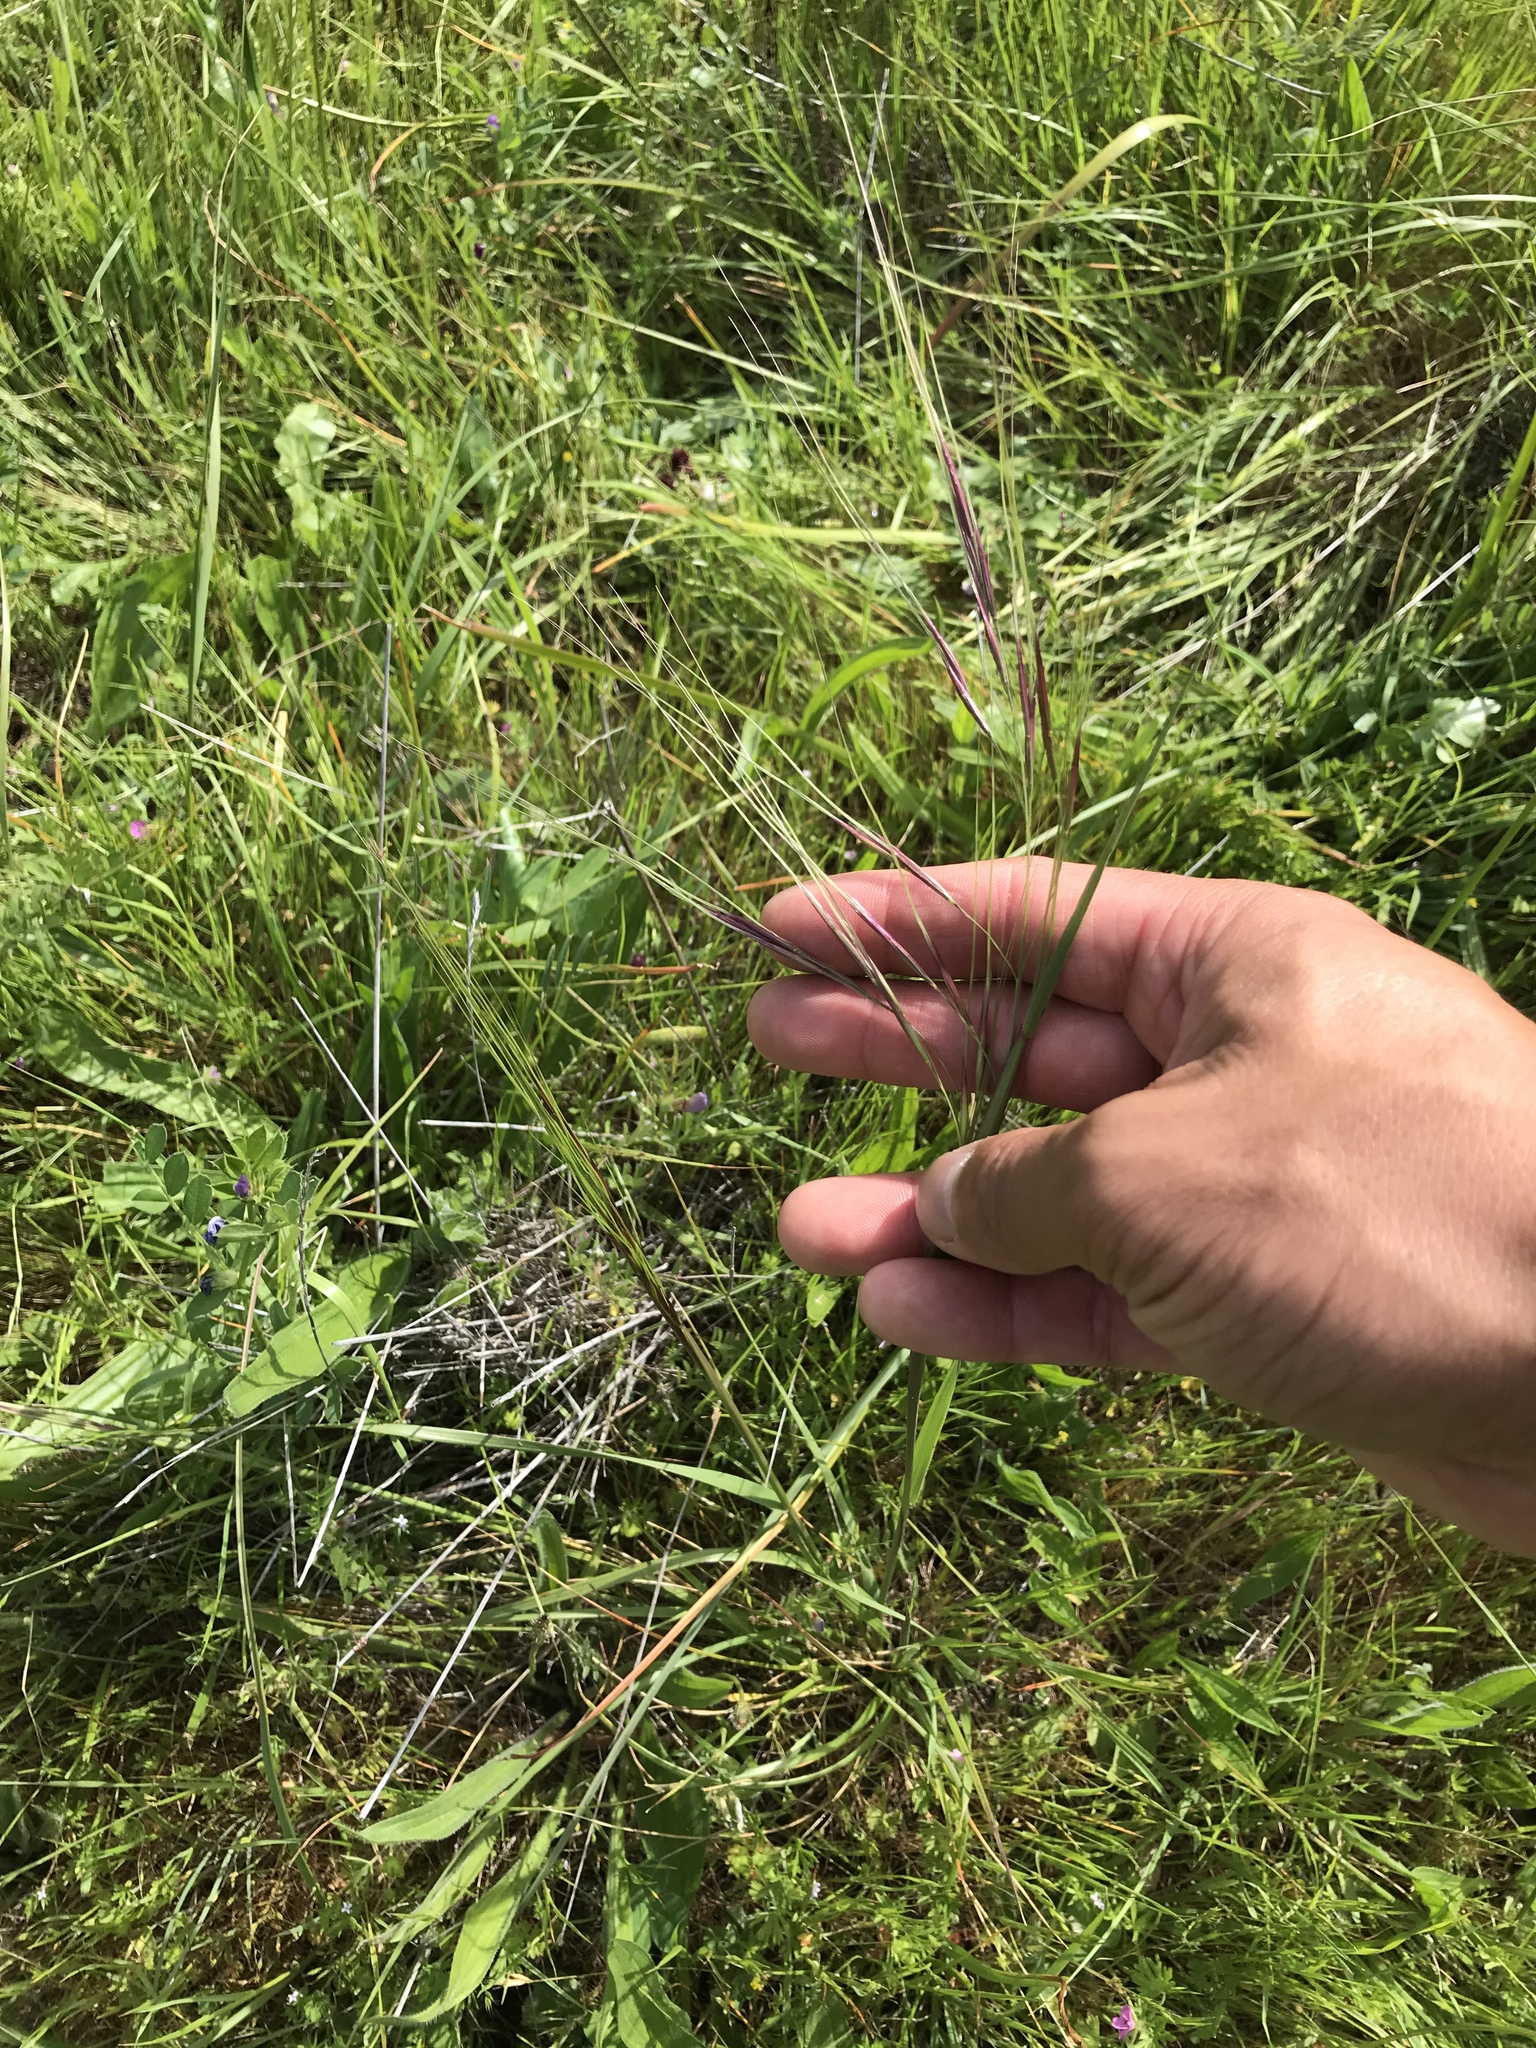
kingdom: Plantae
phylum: Tracheophyta
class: Liliopsida
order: Poales
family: Poaceae
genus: Nassella
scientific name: Nassella pulchra
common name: Purple needlegrass
